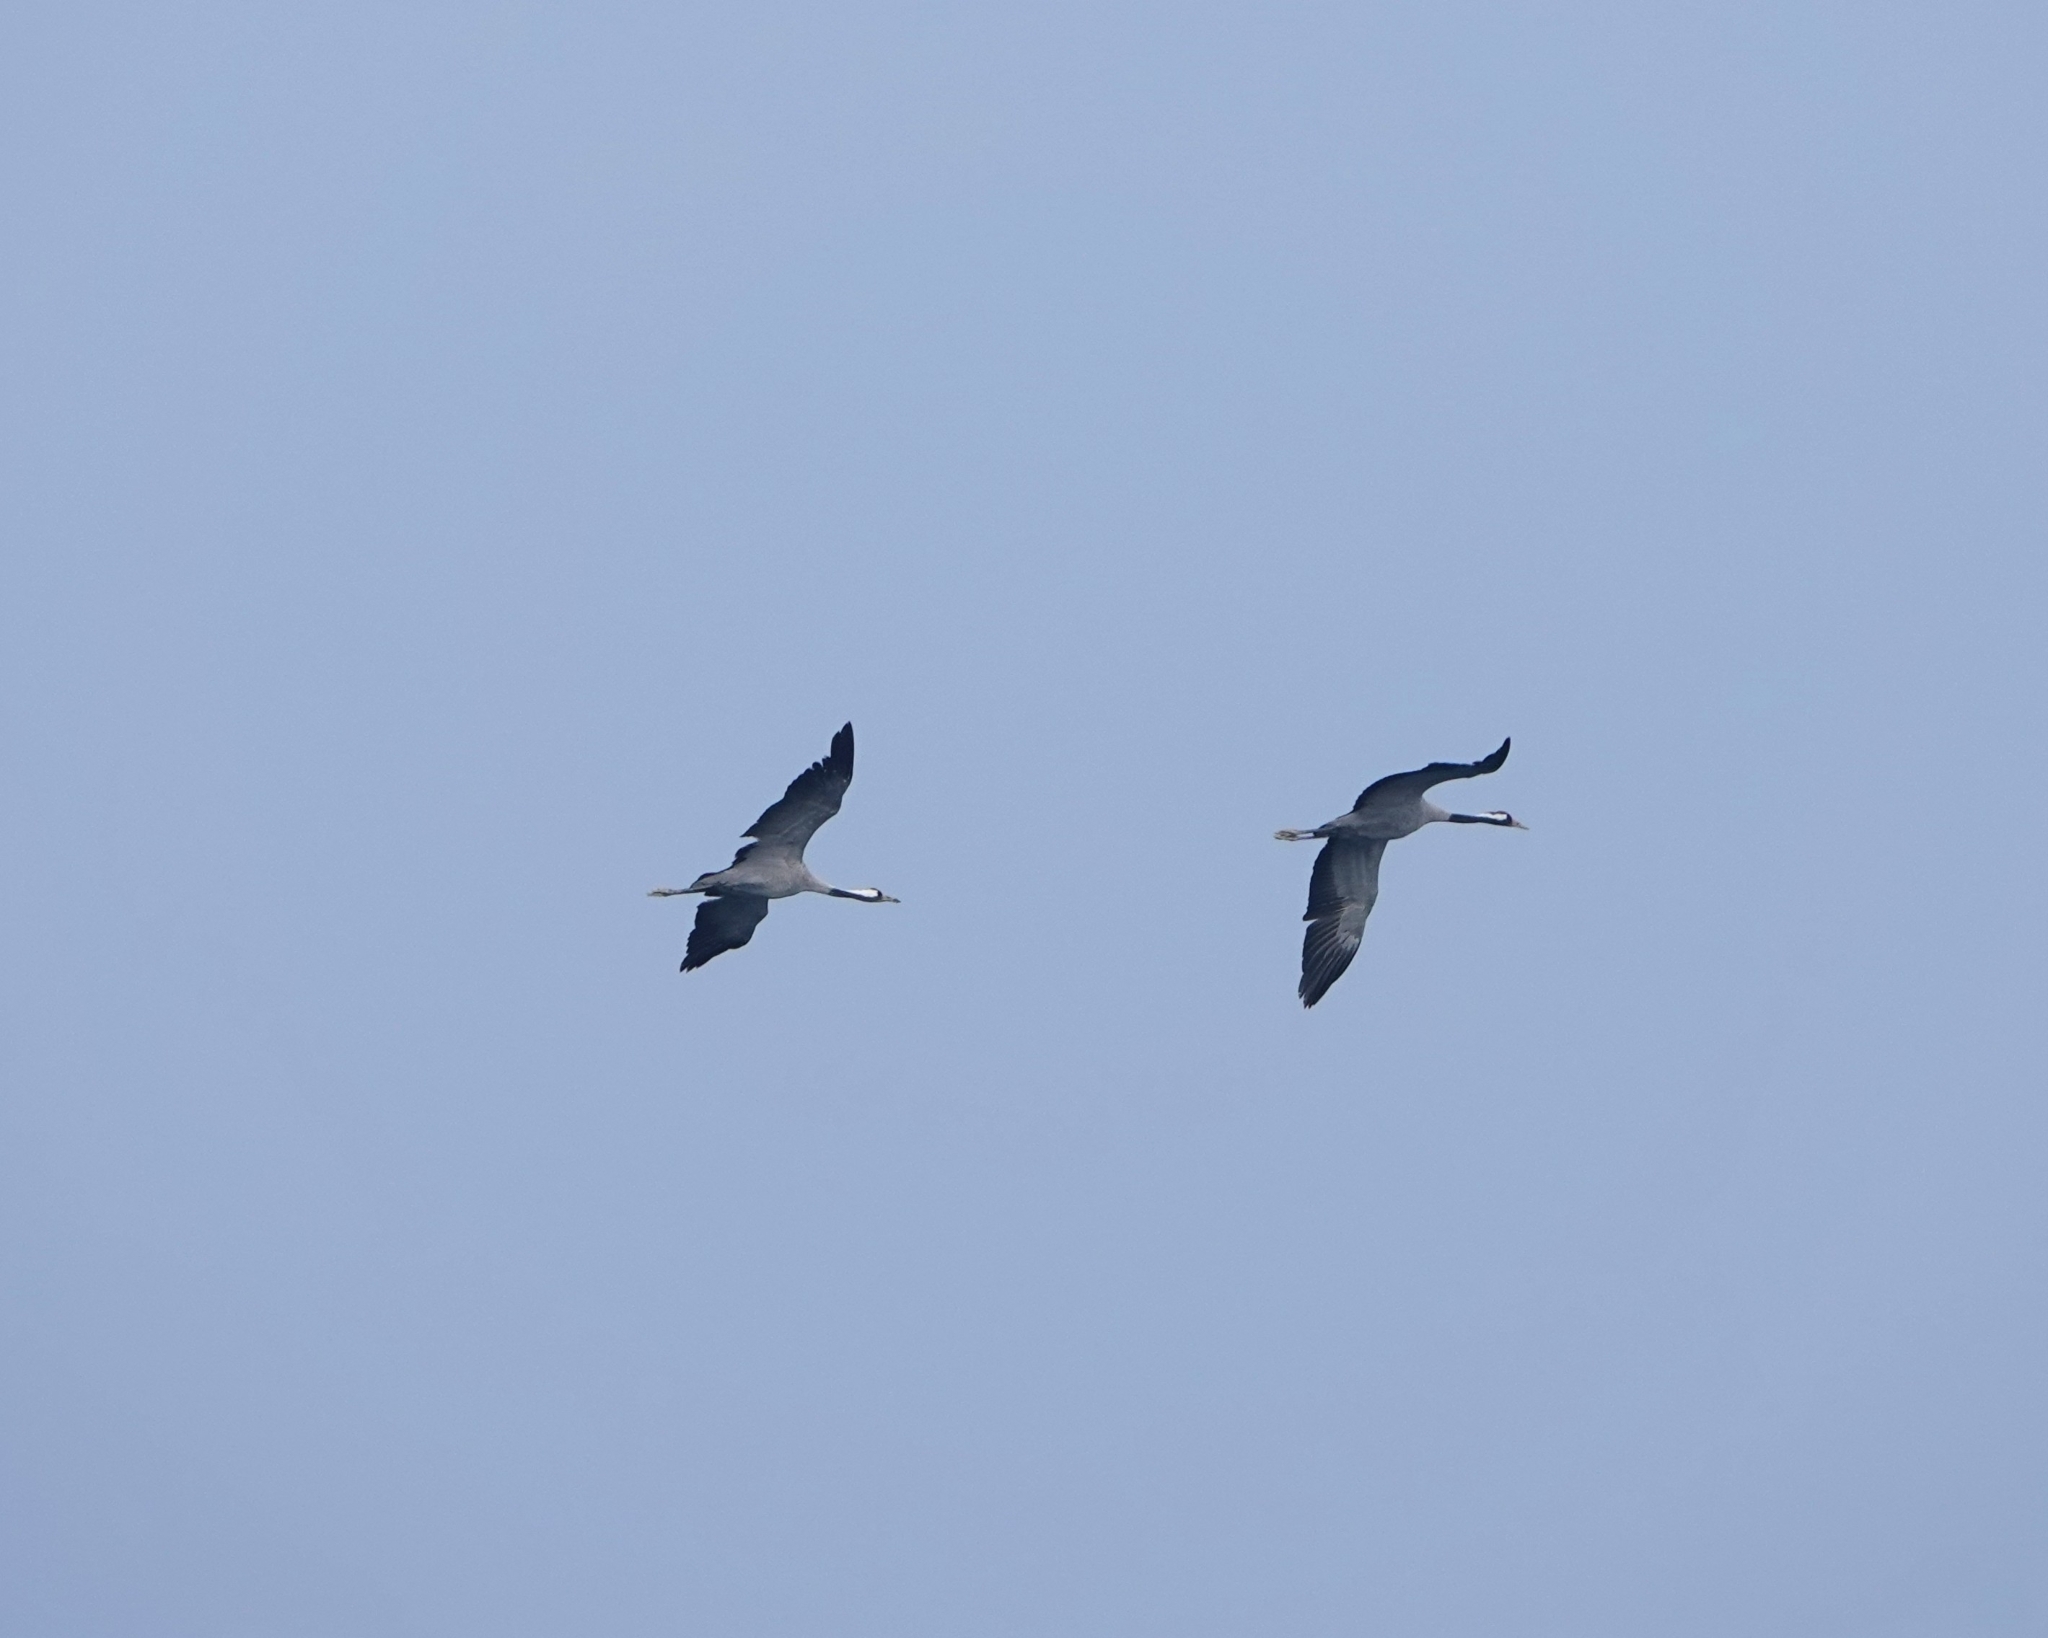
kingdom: Animalia
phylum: Chordata
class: Aves
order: Gruiformes
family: Gruidae
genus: Grus
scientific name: Grus grus
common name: Common crane
